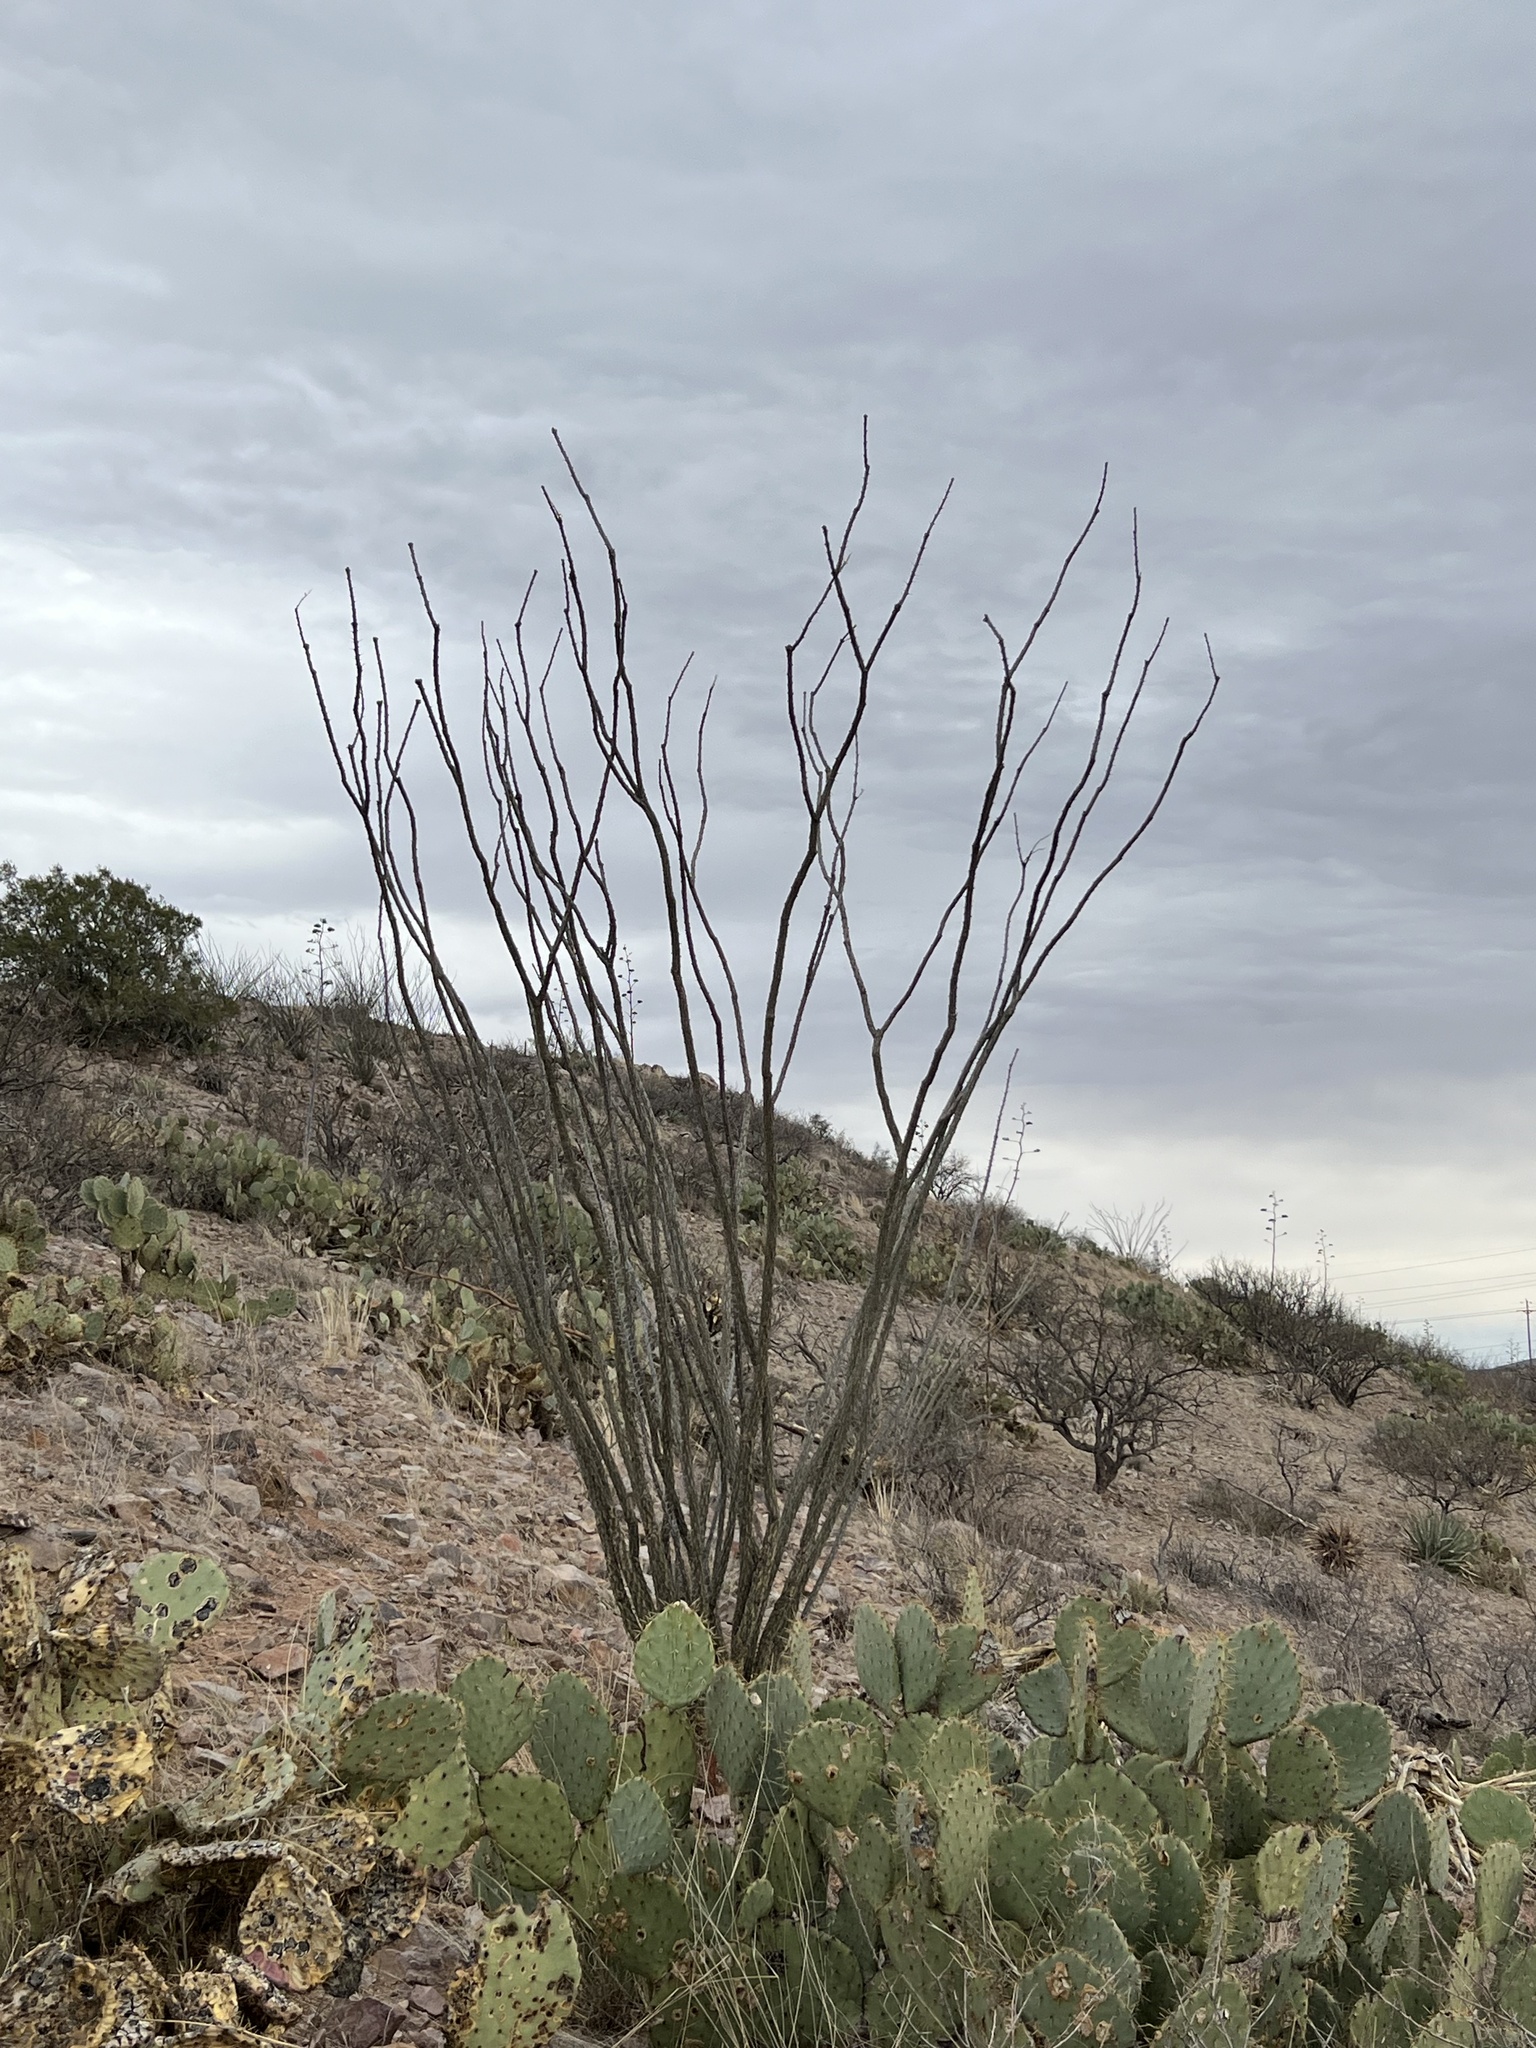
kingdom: Plantae
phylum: Tracheophyta
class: Magnoliopsida
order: Ericales
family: Fouquieriaceae
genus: Fouquieria
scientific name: Fouquieria splendens
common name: Vine-cactus
